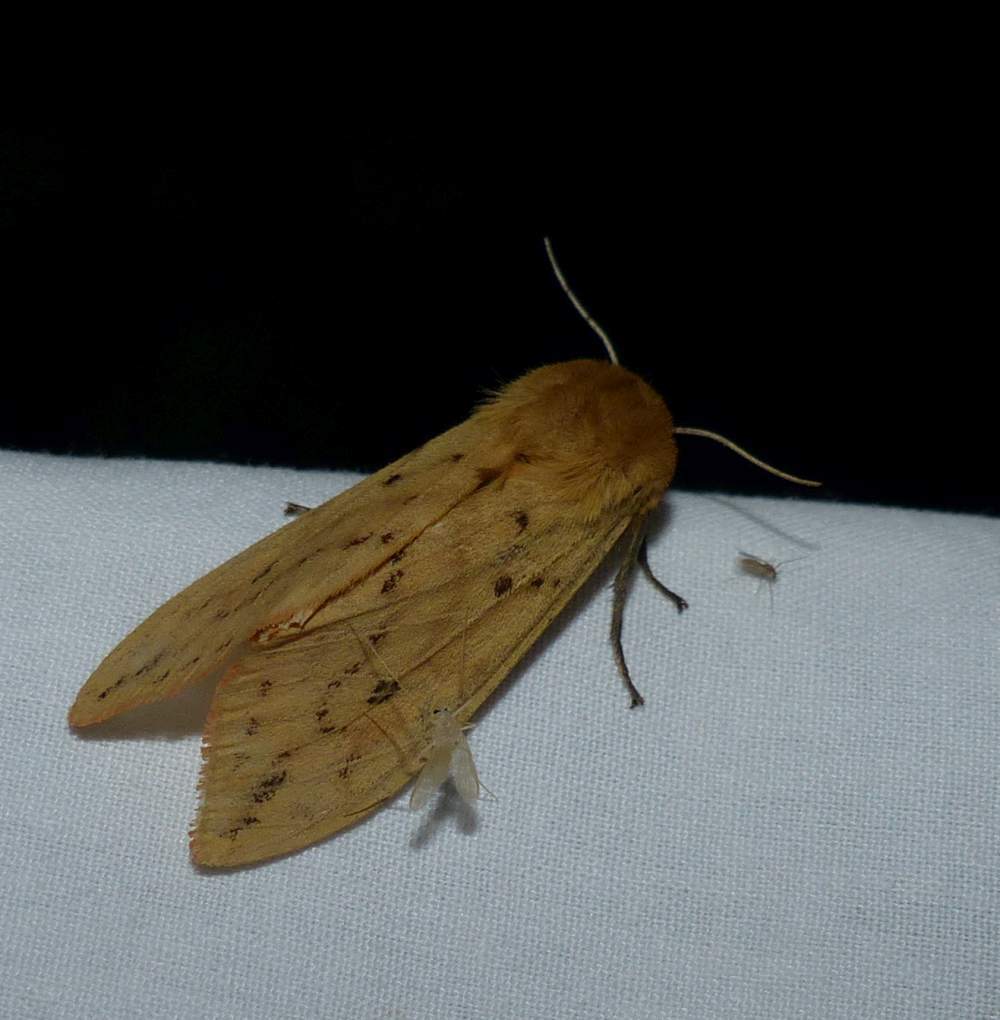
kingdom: Animalia
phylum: Arthropoda
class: Insecta
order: Lepidoptera
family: Erebidae
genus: Pyrrharctia
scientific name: Pyrrharctia isabella
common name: Isabella tiger moth
